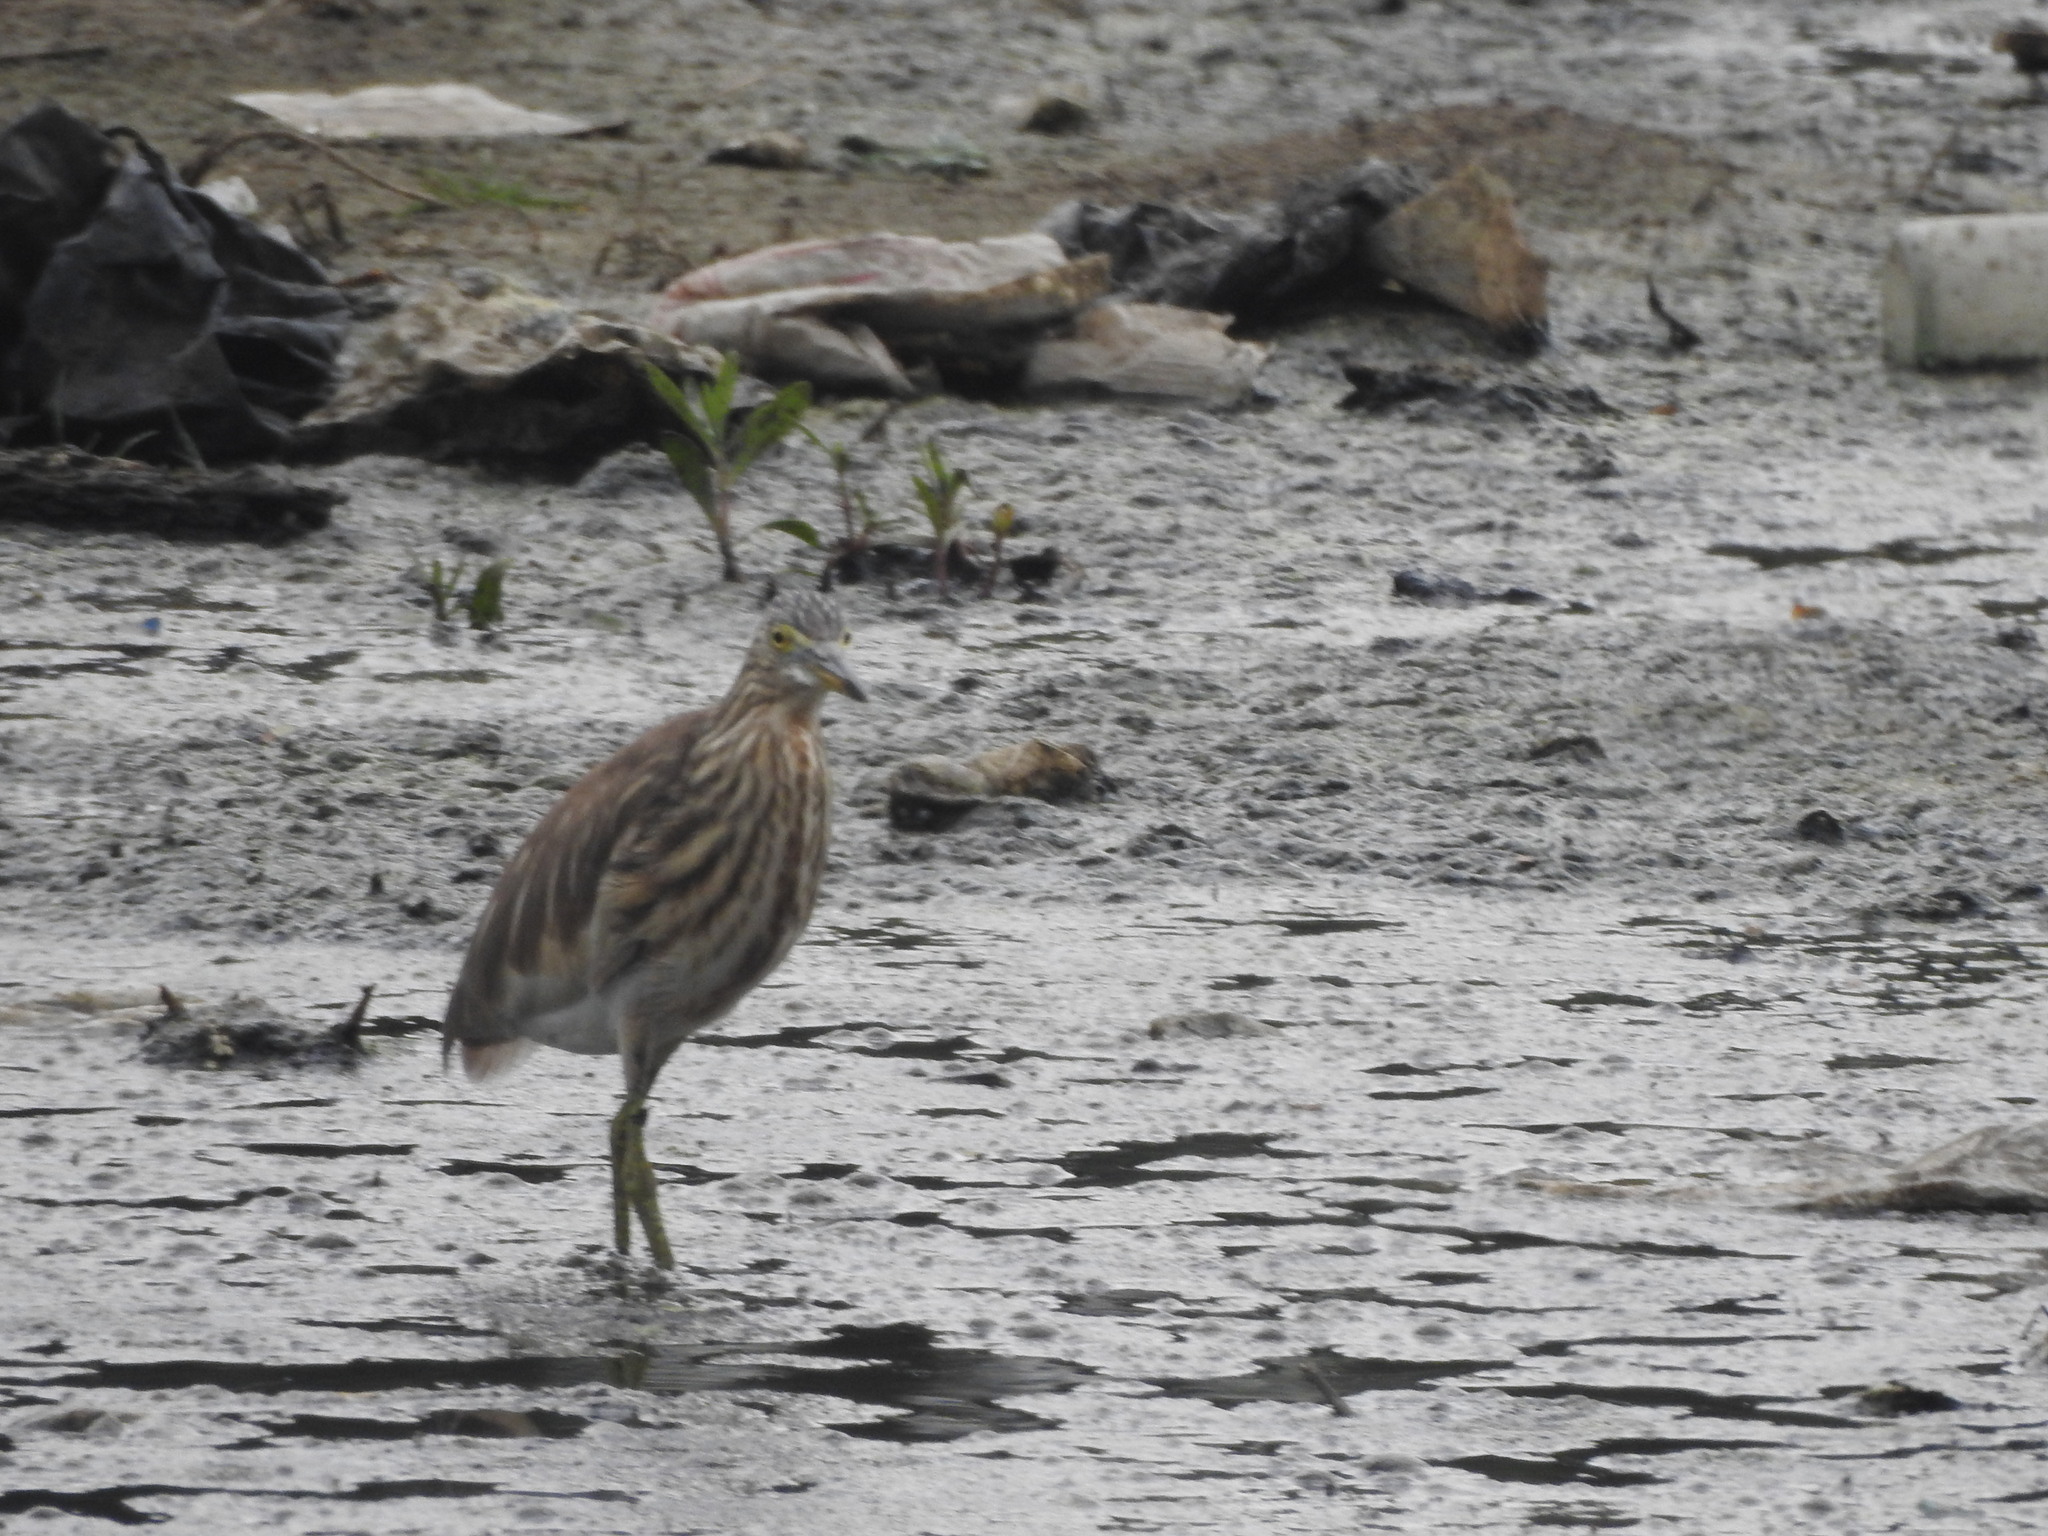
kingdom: Animalia
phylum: Chordata
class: Aves
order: Pelecaniformes
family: Ardeidae
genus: Ardeola
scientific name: Ardeola grayii
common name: Indian pond heron
